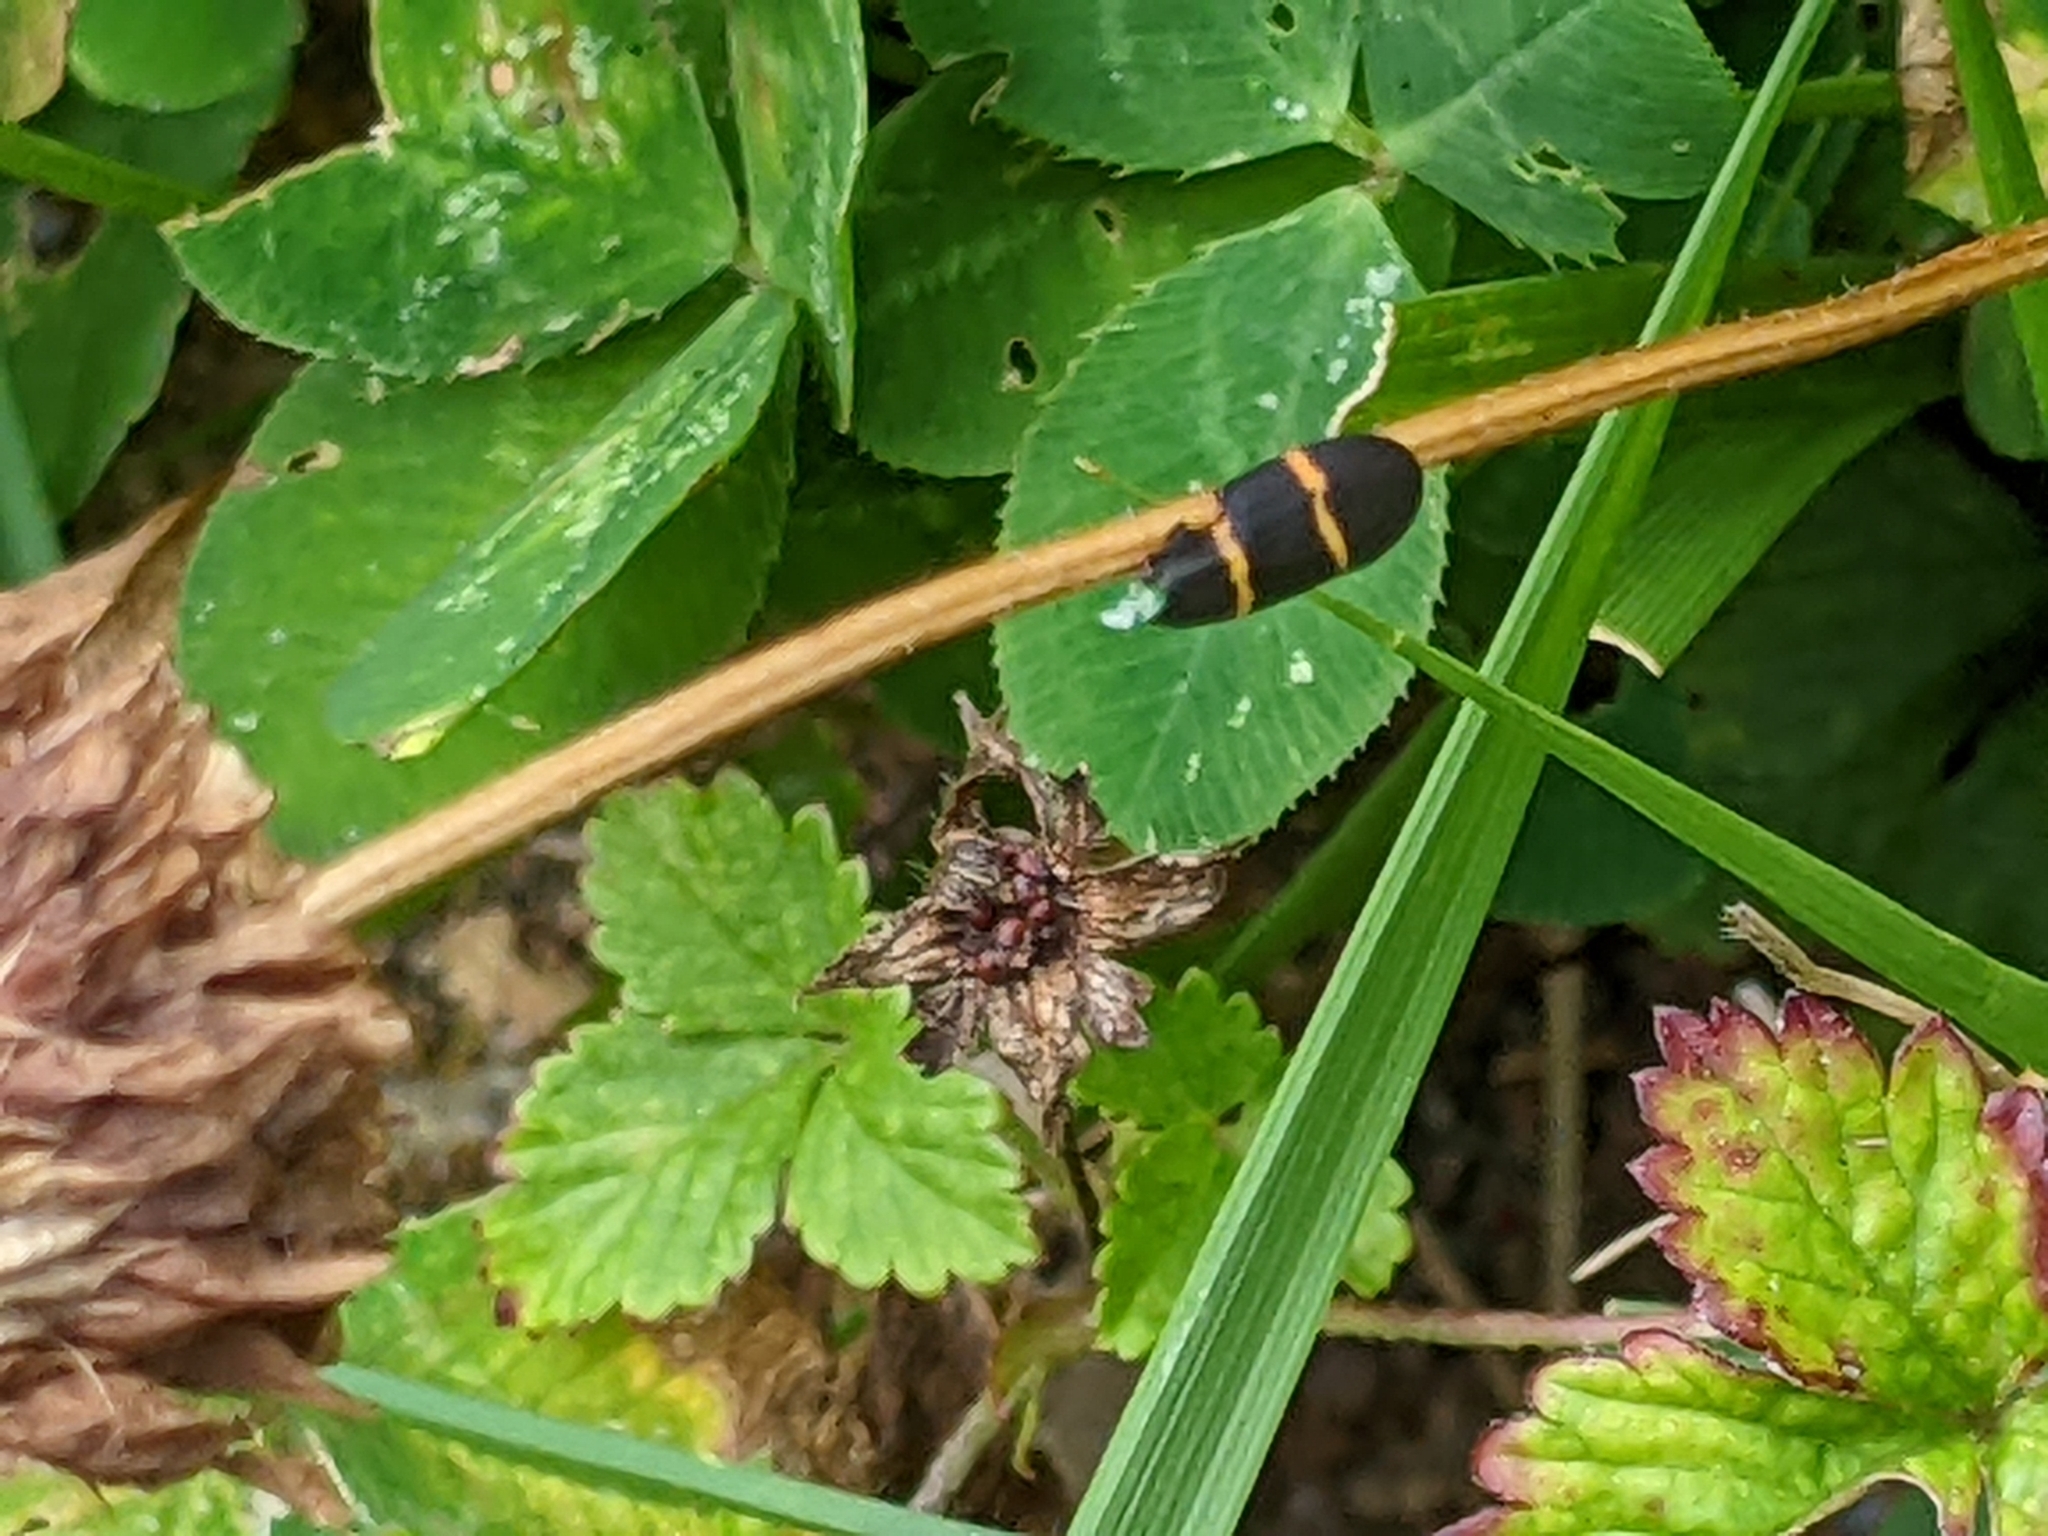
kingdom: Animalia
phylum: Arthropoda
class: Insecta
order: Hemiptera
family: Cercopidae
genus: Prosapia
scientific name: Prosapia bicincta
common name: Twolined spittlebug
